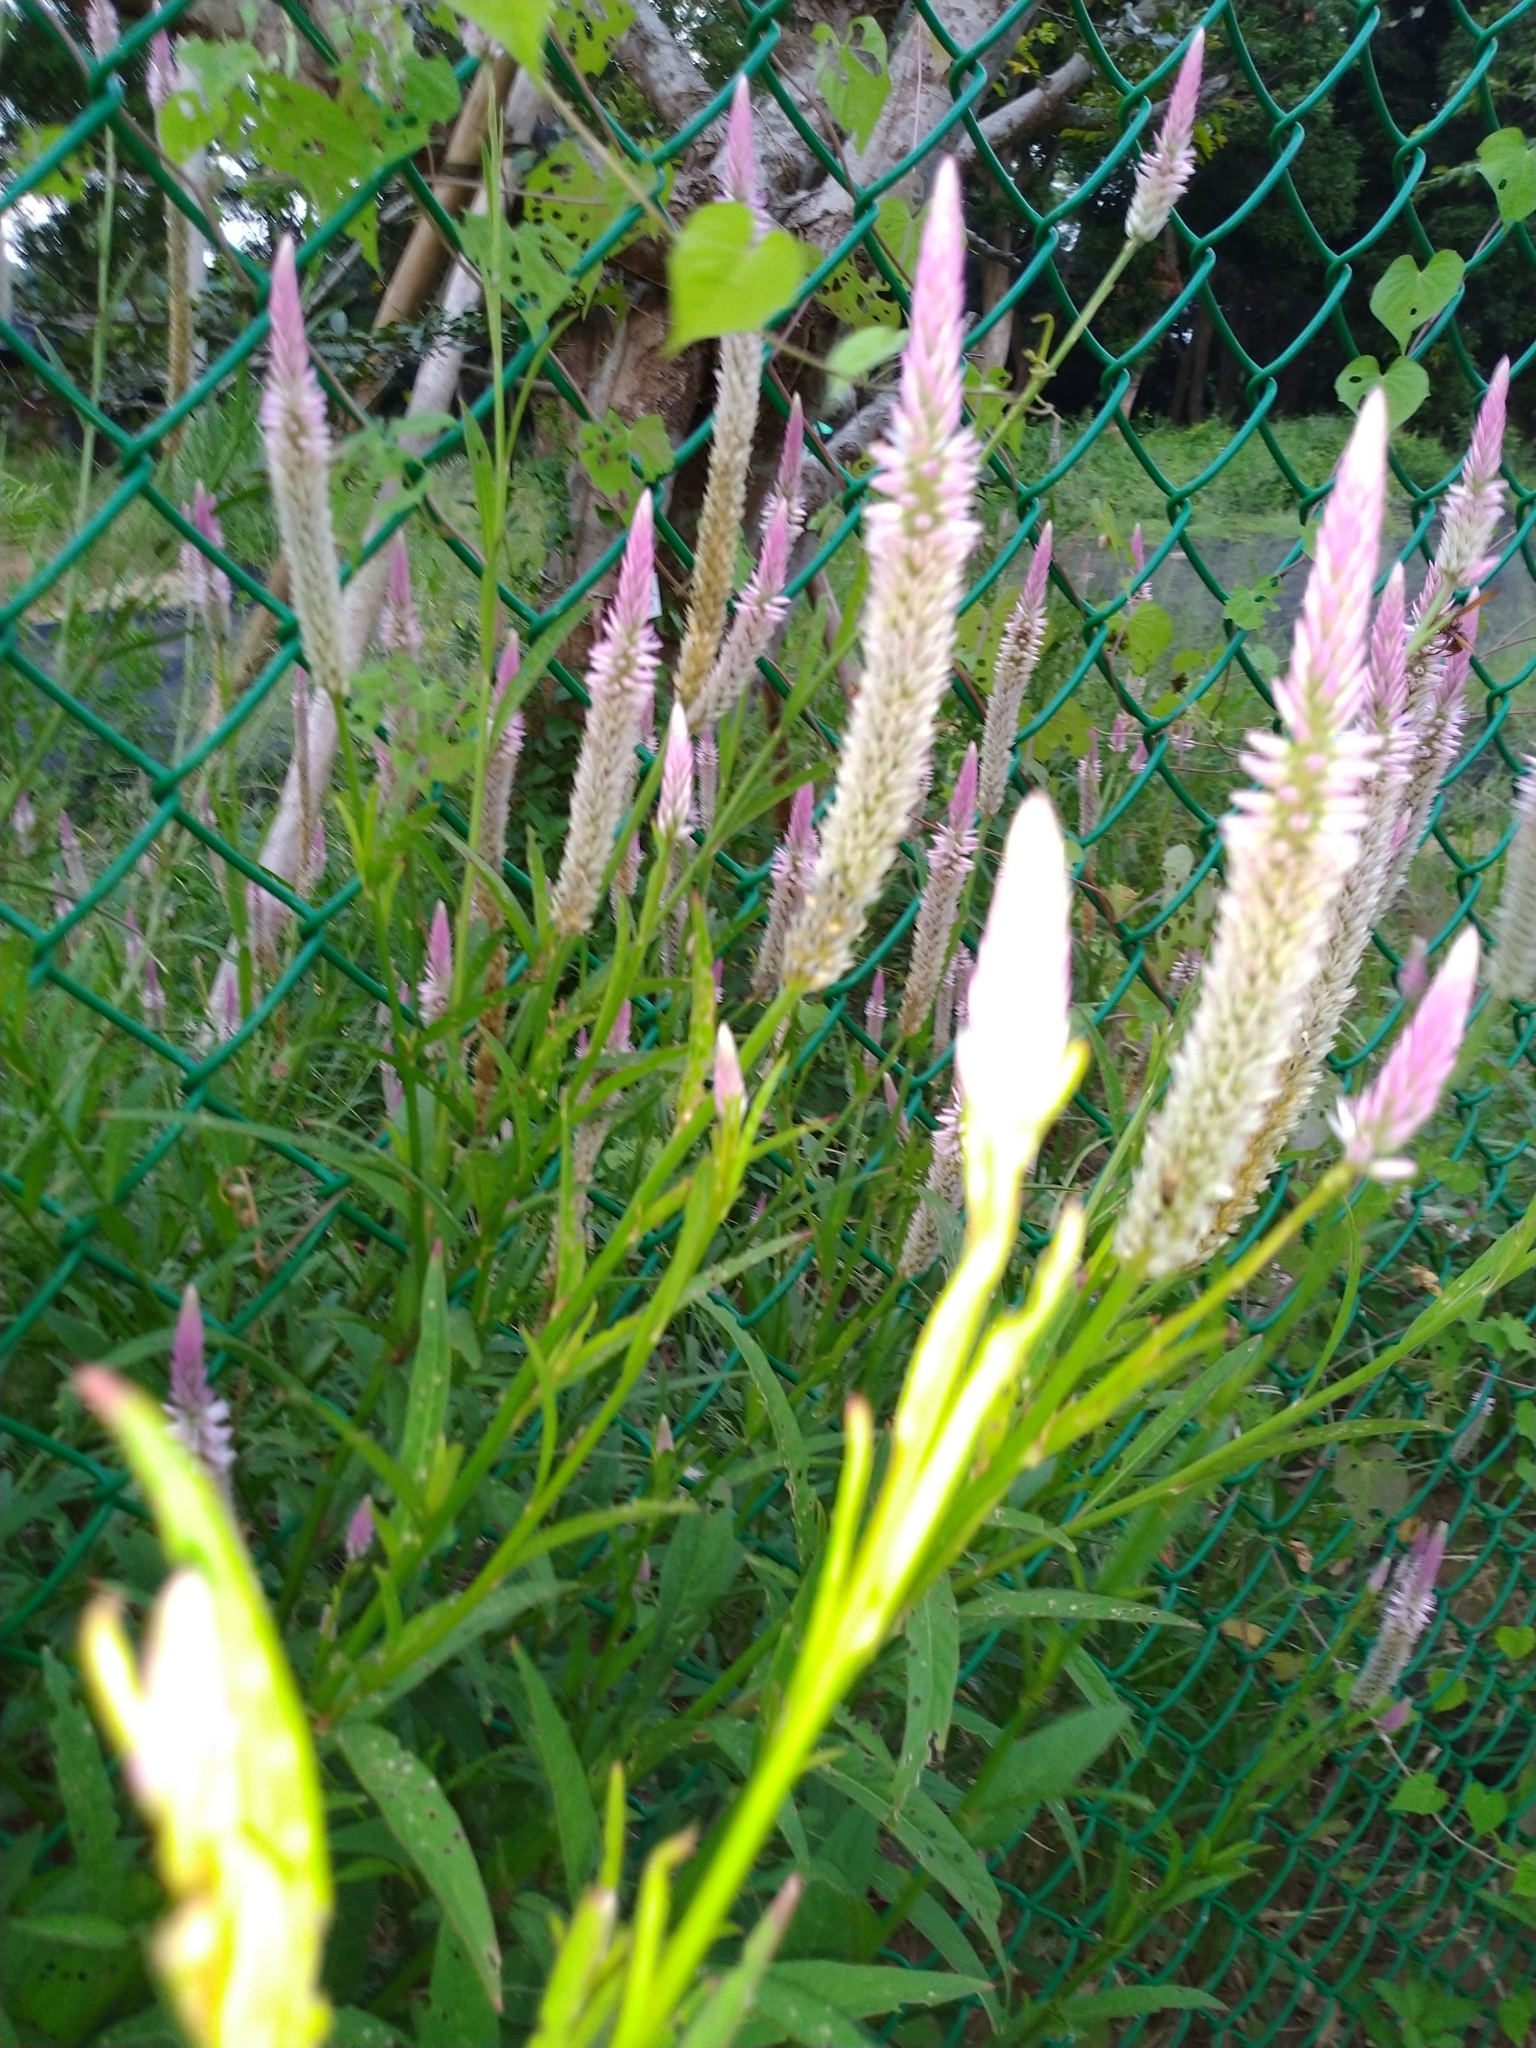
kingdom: Plantae
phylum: Tracheophyta
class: Magnoliopsida
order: Caryophyllales
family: Amaranthaceae
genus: Celosia
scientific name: Celosia argentea
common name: Feather cockscomb
